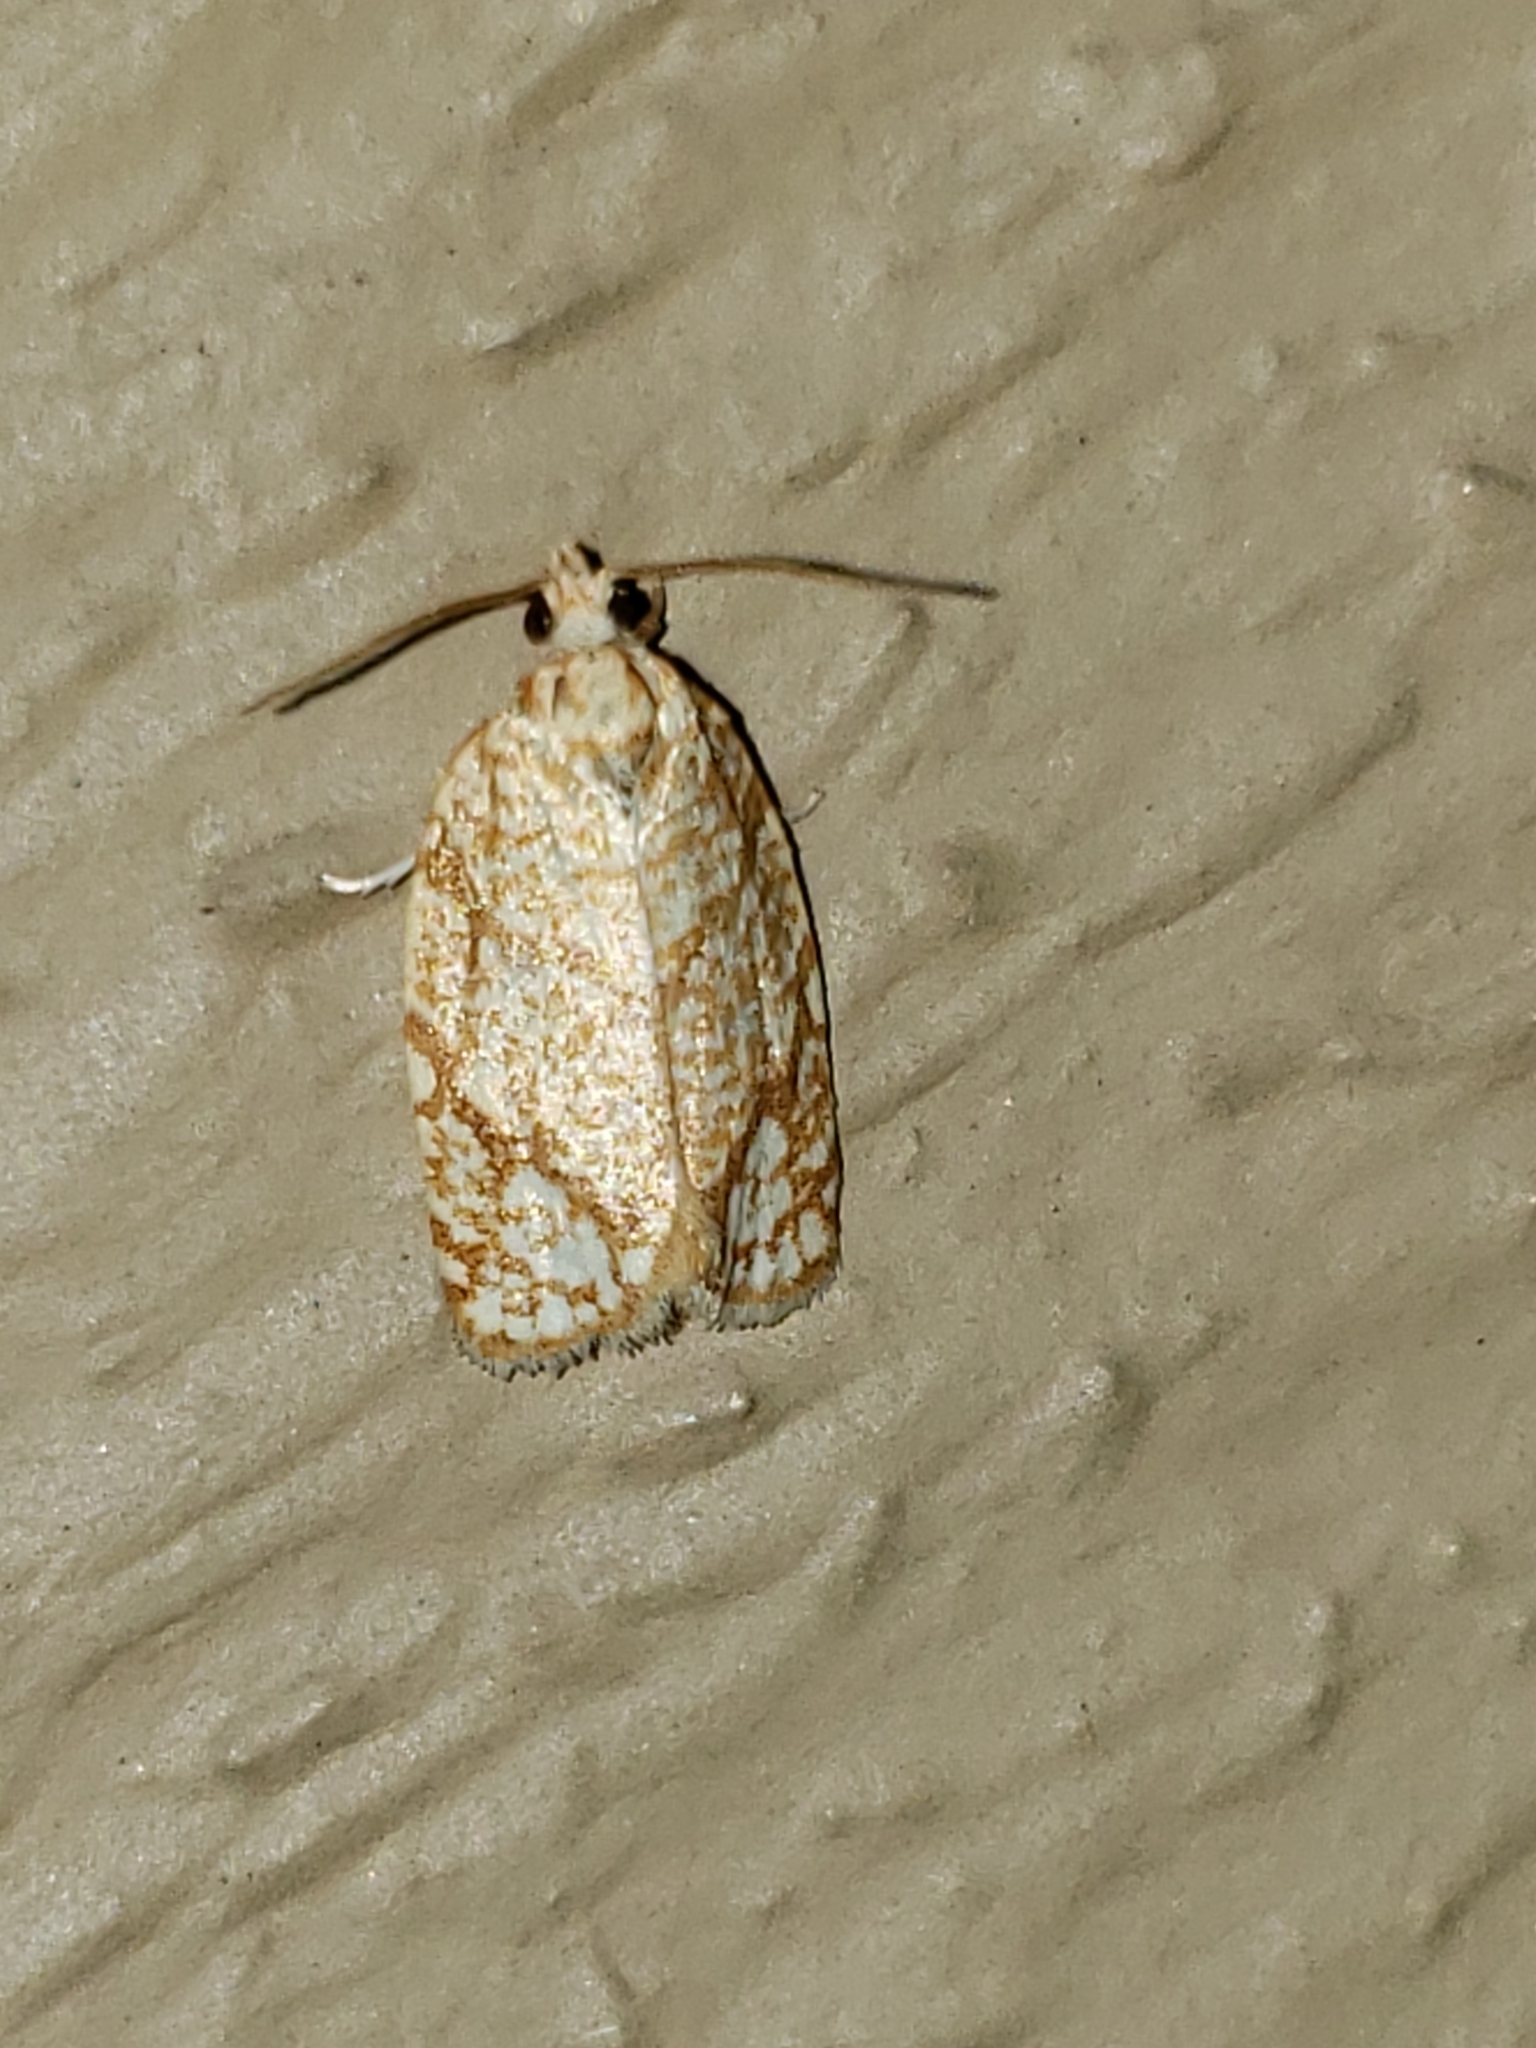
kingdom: Animalia
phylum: Arthropoda
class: Insecta
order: Lepidoptera
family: Tortricidae
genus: Argyrotaenia
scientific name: Argyrotaenia quercifoliana
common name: Yellow-winged oak leafroller moth
